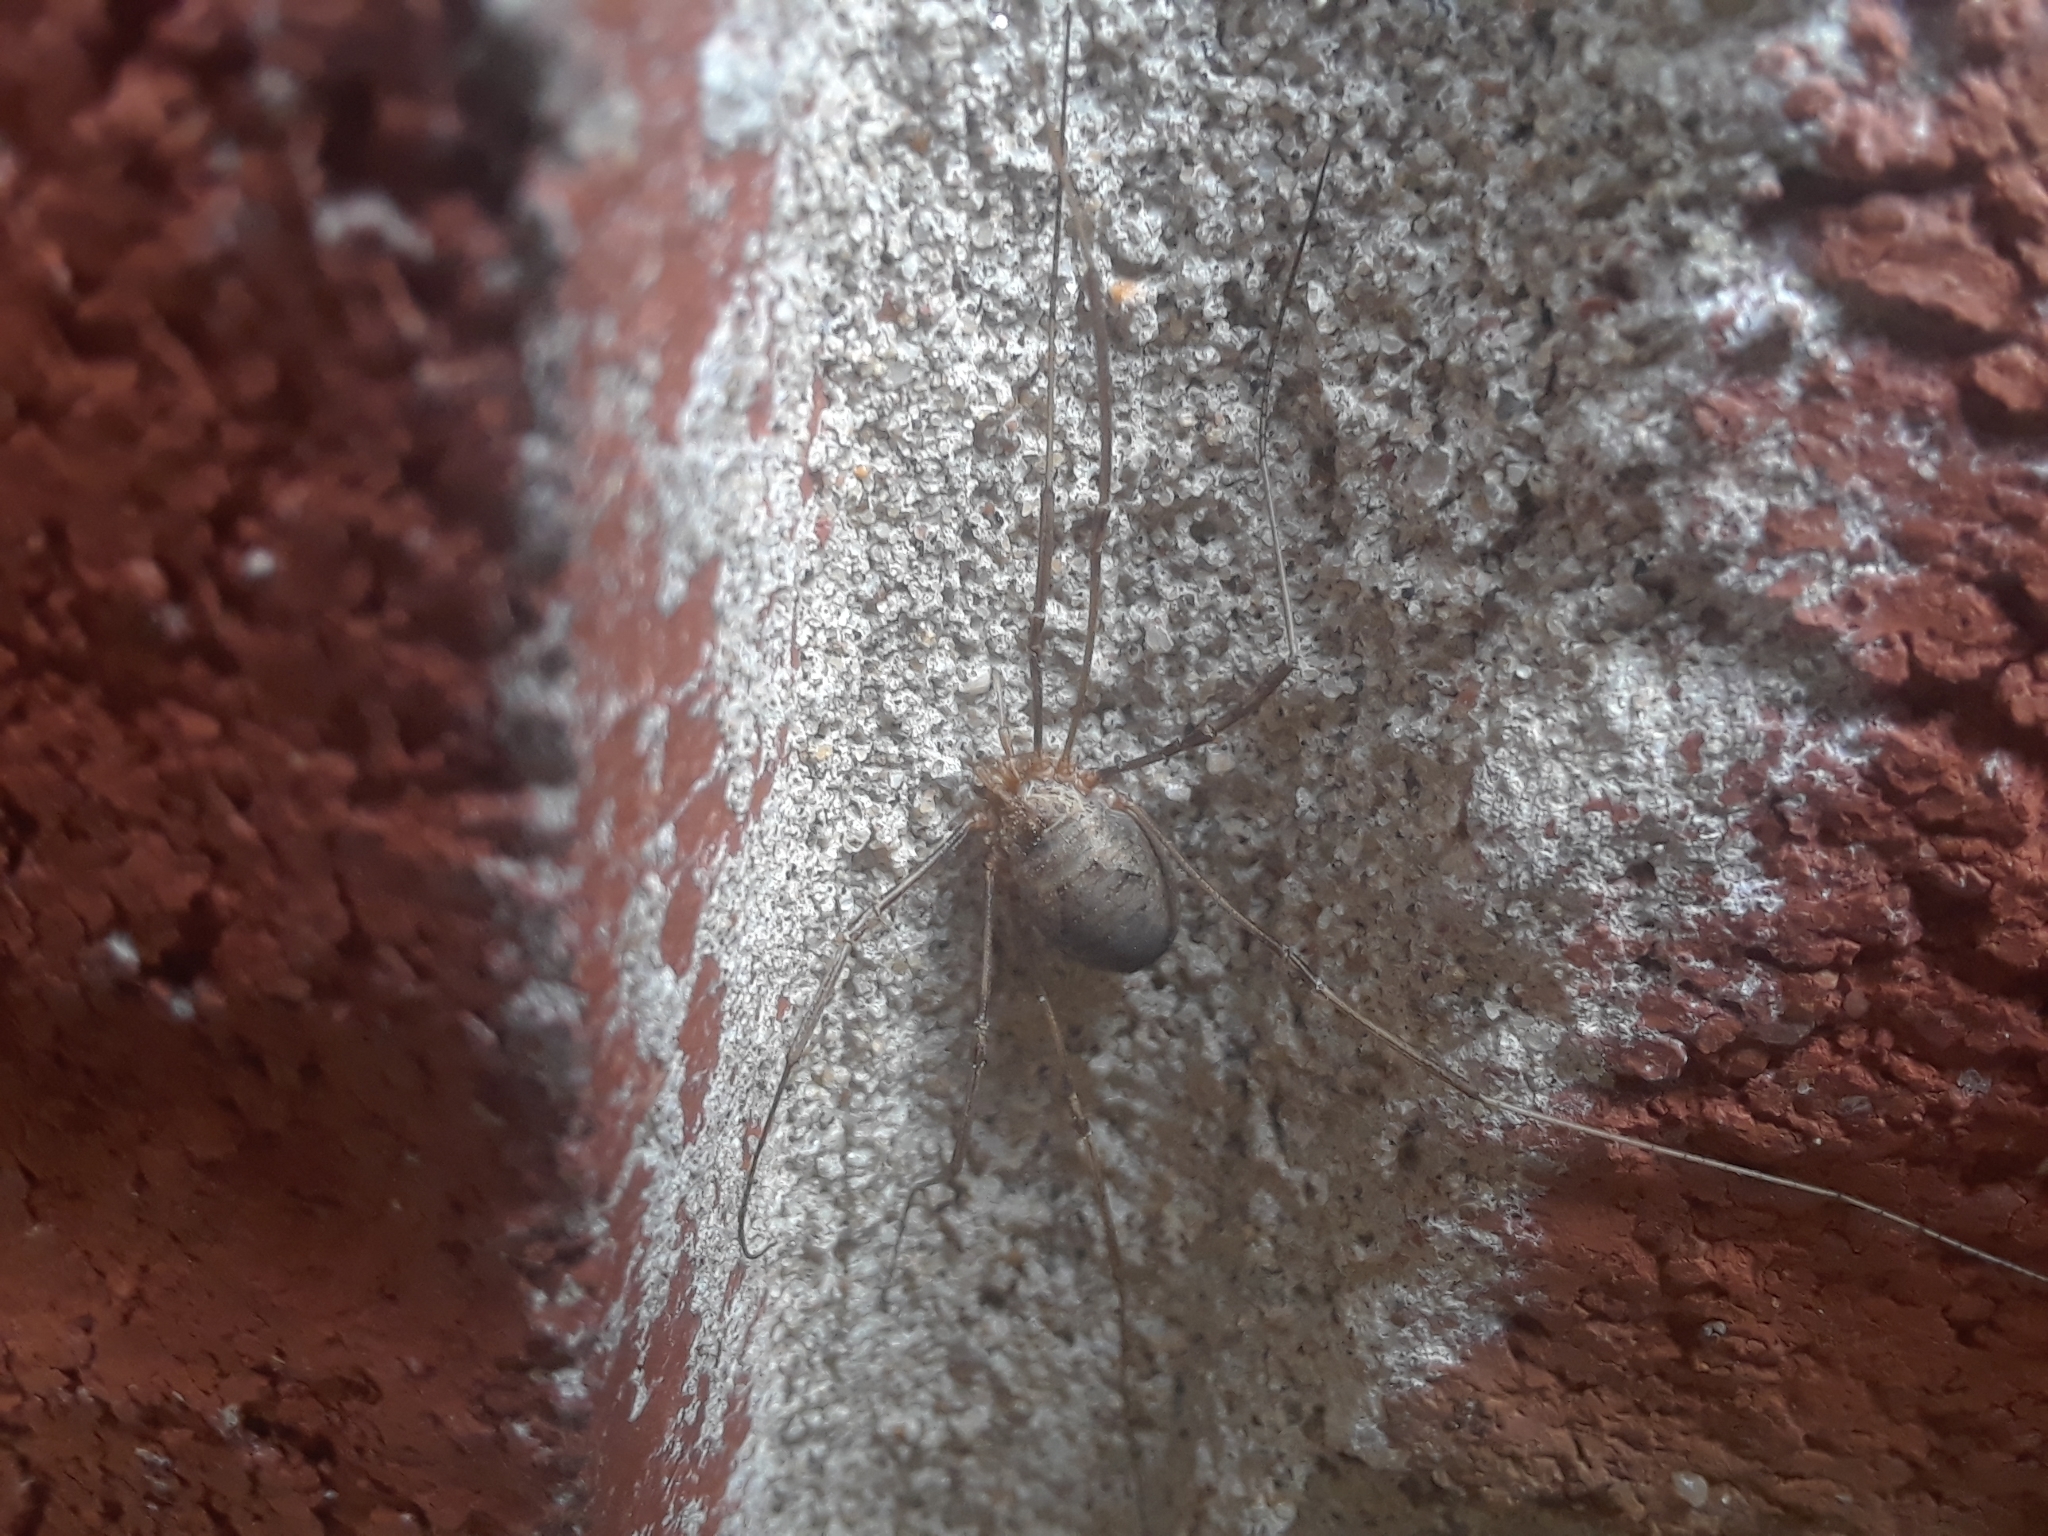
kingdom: Animalia
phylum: Arthropoda
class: Arachnida
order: Opiliones
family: Phalangiidae
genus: Phalangium
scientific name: Phalangium opilio
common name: Daddy longleg
